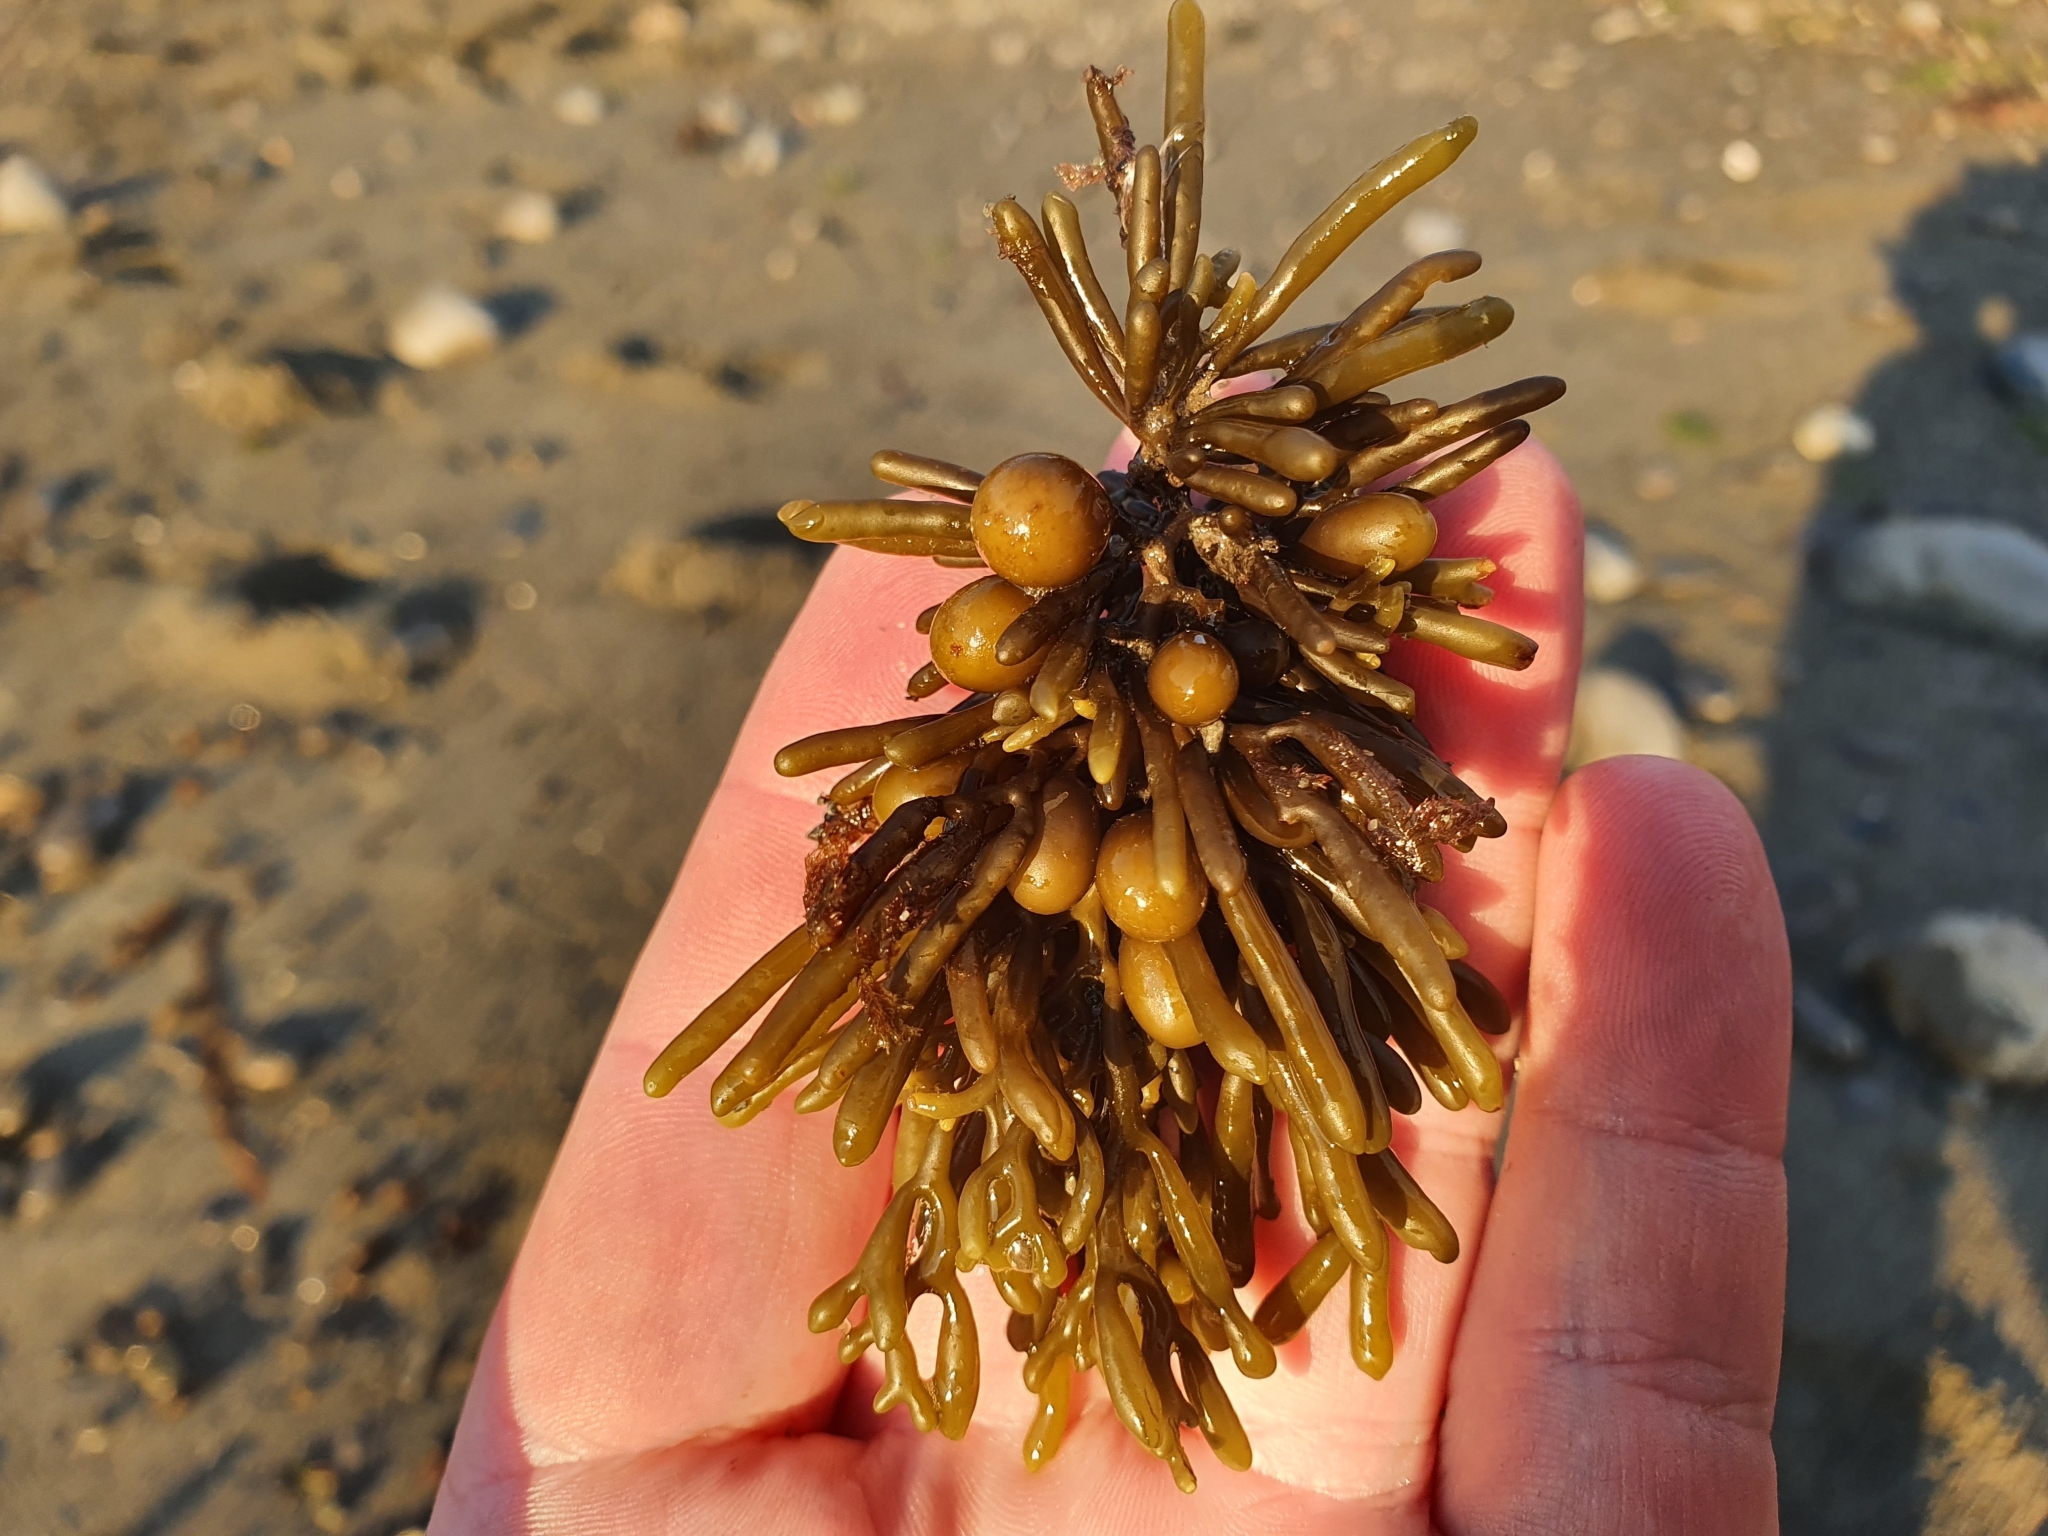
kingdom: Chromista
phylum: Ochrophyta
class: Phaeophyceae
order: Fucales
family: Sargassaceae
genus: Cystophora
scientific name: Cystophora torulosa
